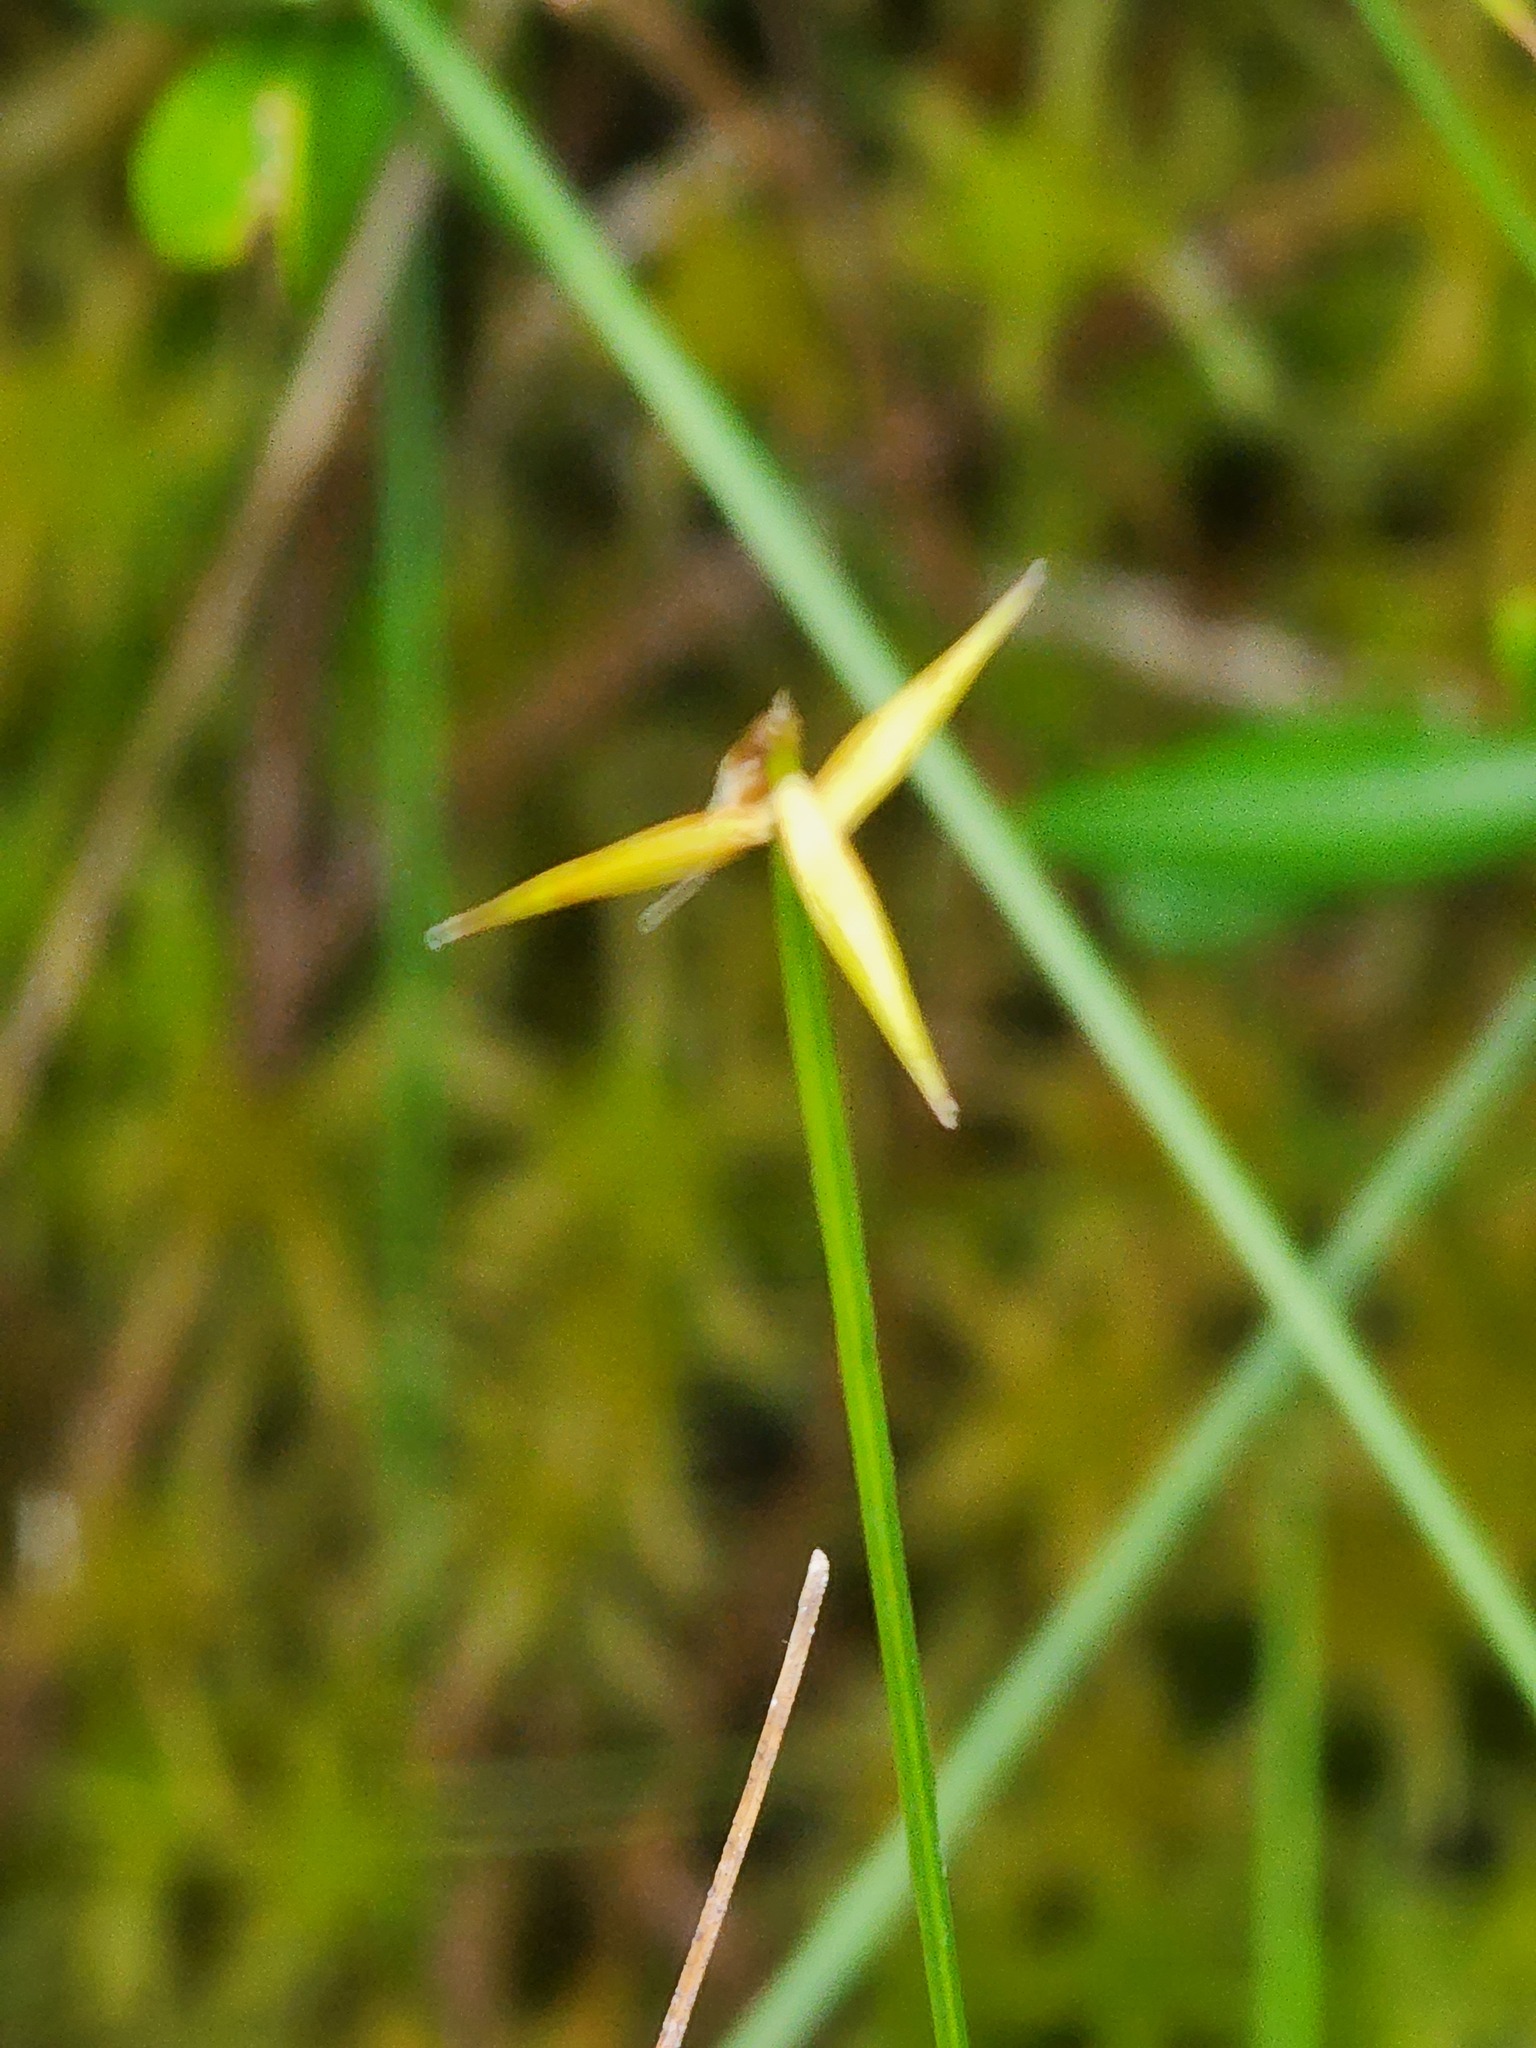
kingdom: Plantae
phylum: Tracheophyta
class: Liliopsida
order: Poales
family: Cyperaceae
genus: Carex
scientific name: Carex pauciflora
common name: Few-flowered sedge
